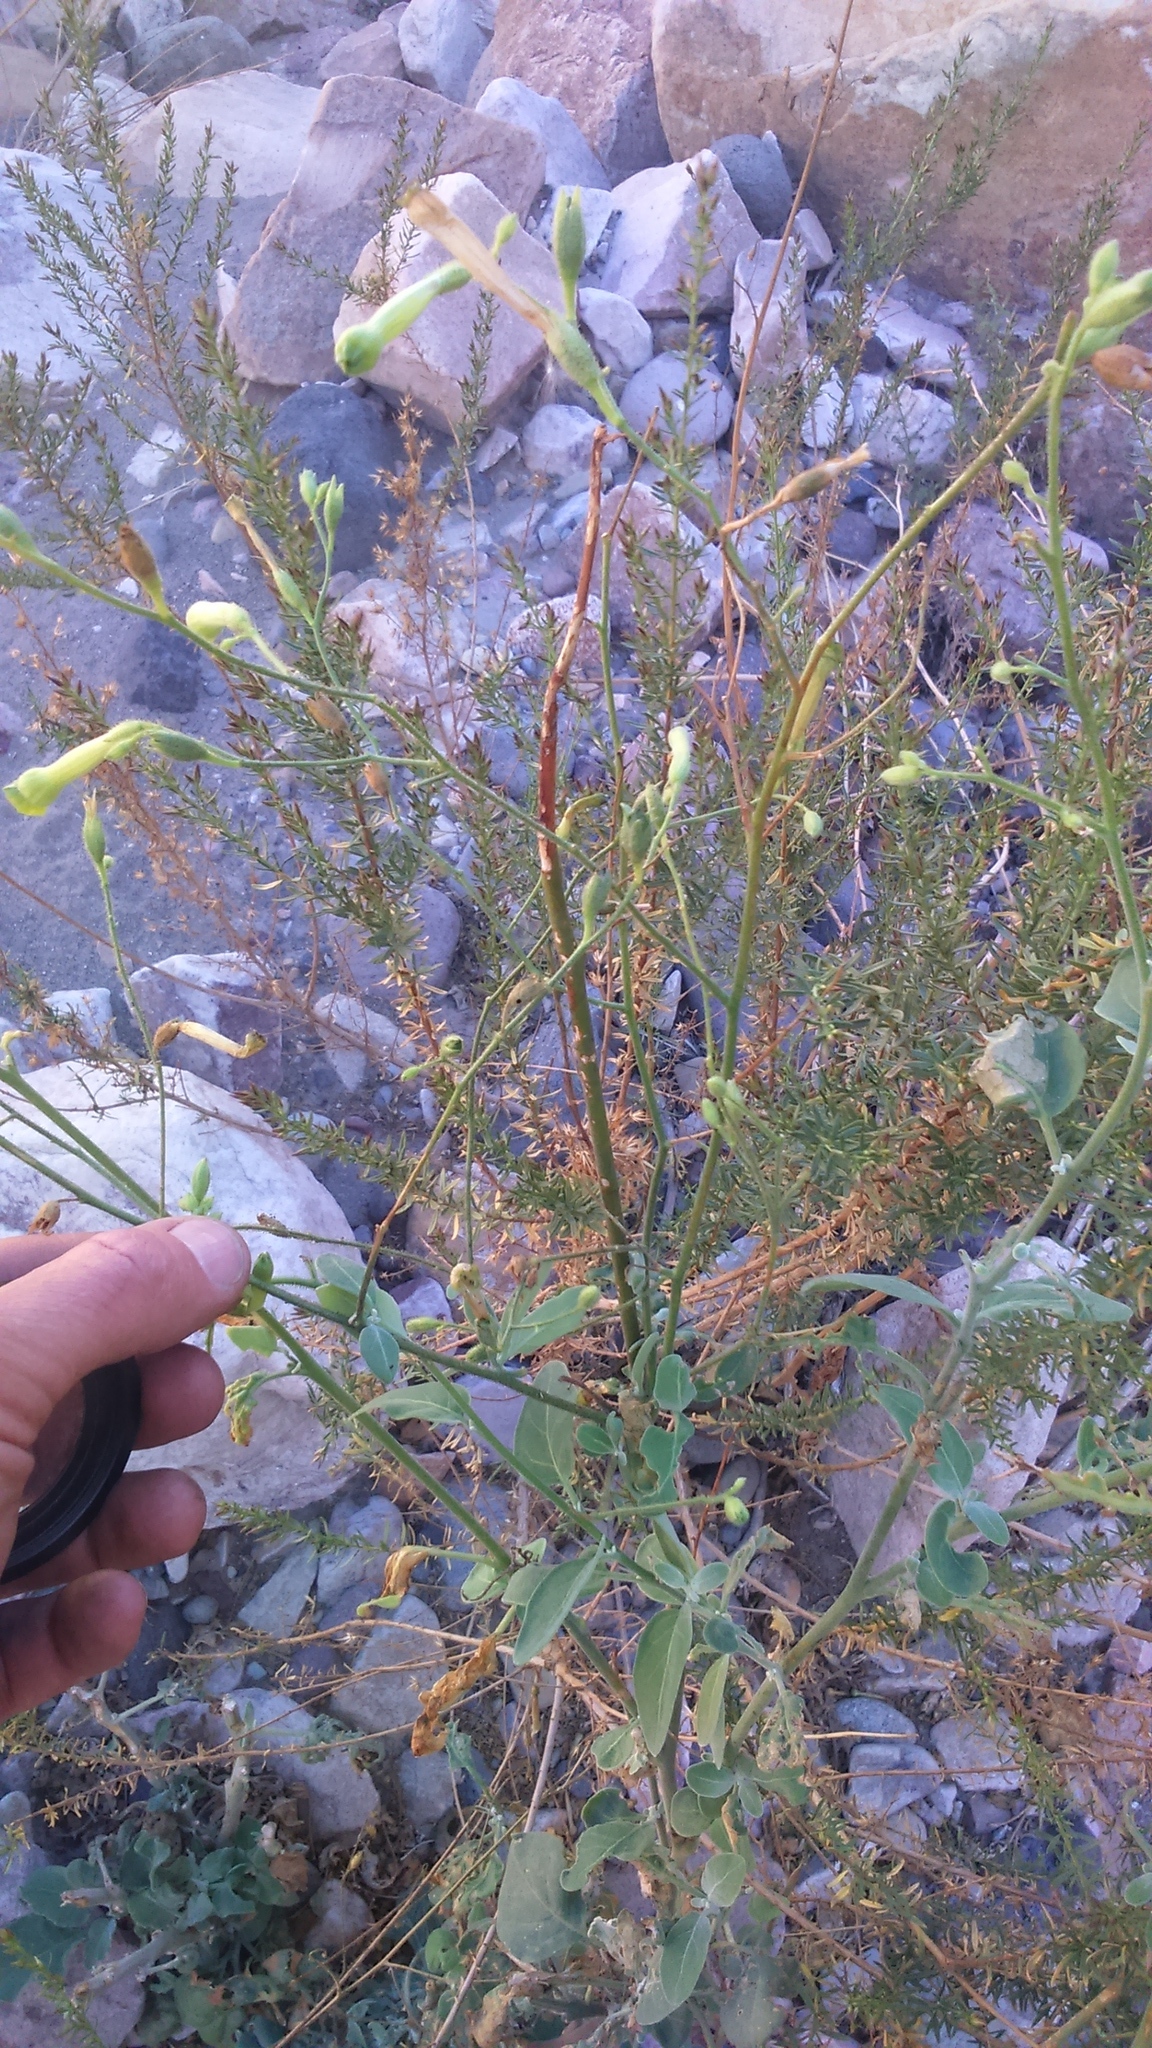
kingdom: Plantae
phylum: Tracheophyta
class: Magnoliopsida
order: Solanales
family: Solanaceae
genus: Nicotiana
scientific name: Nicotiana paniculata
